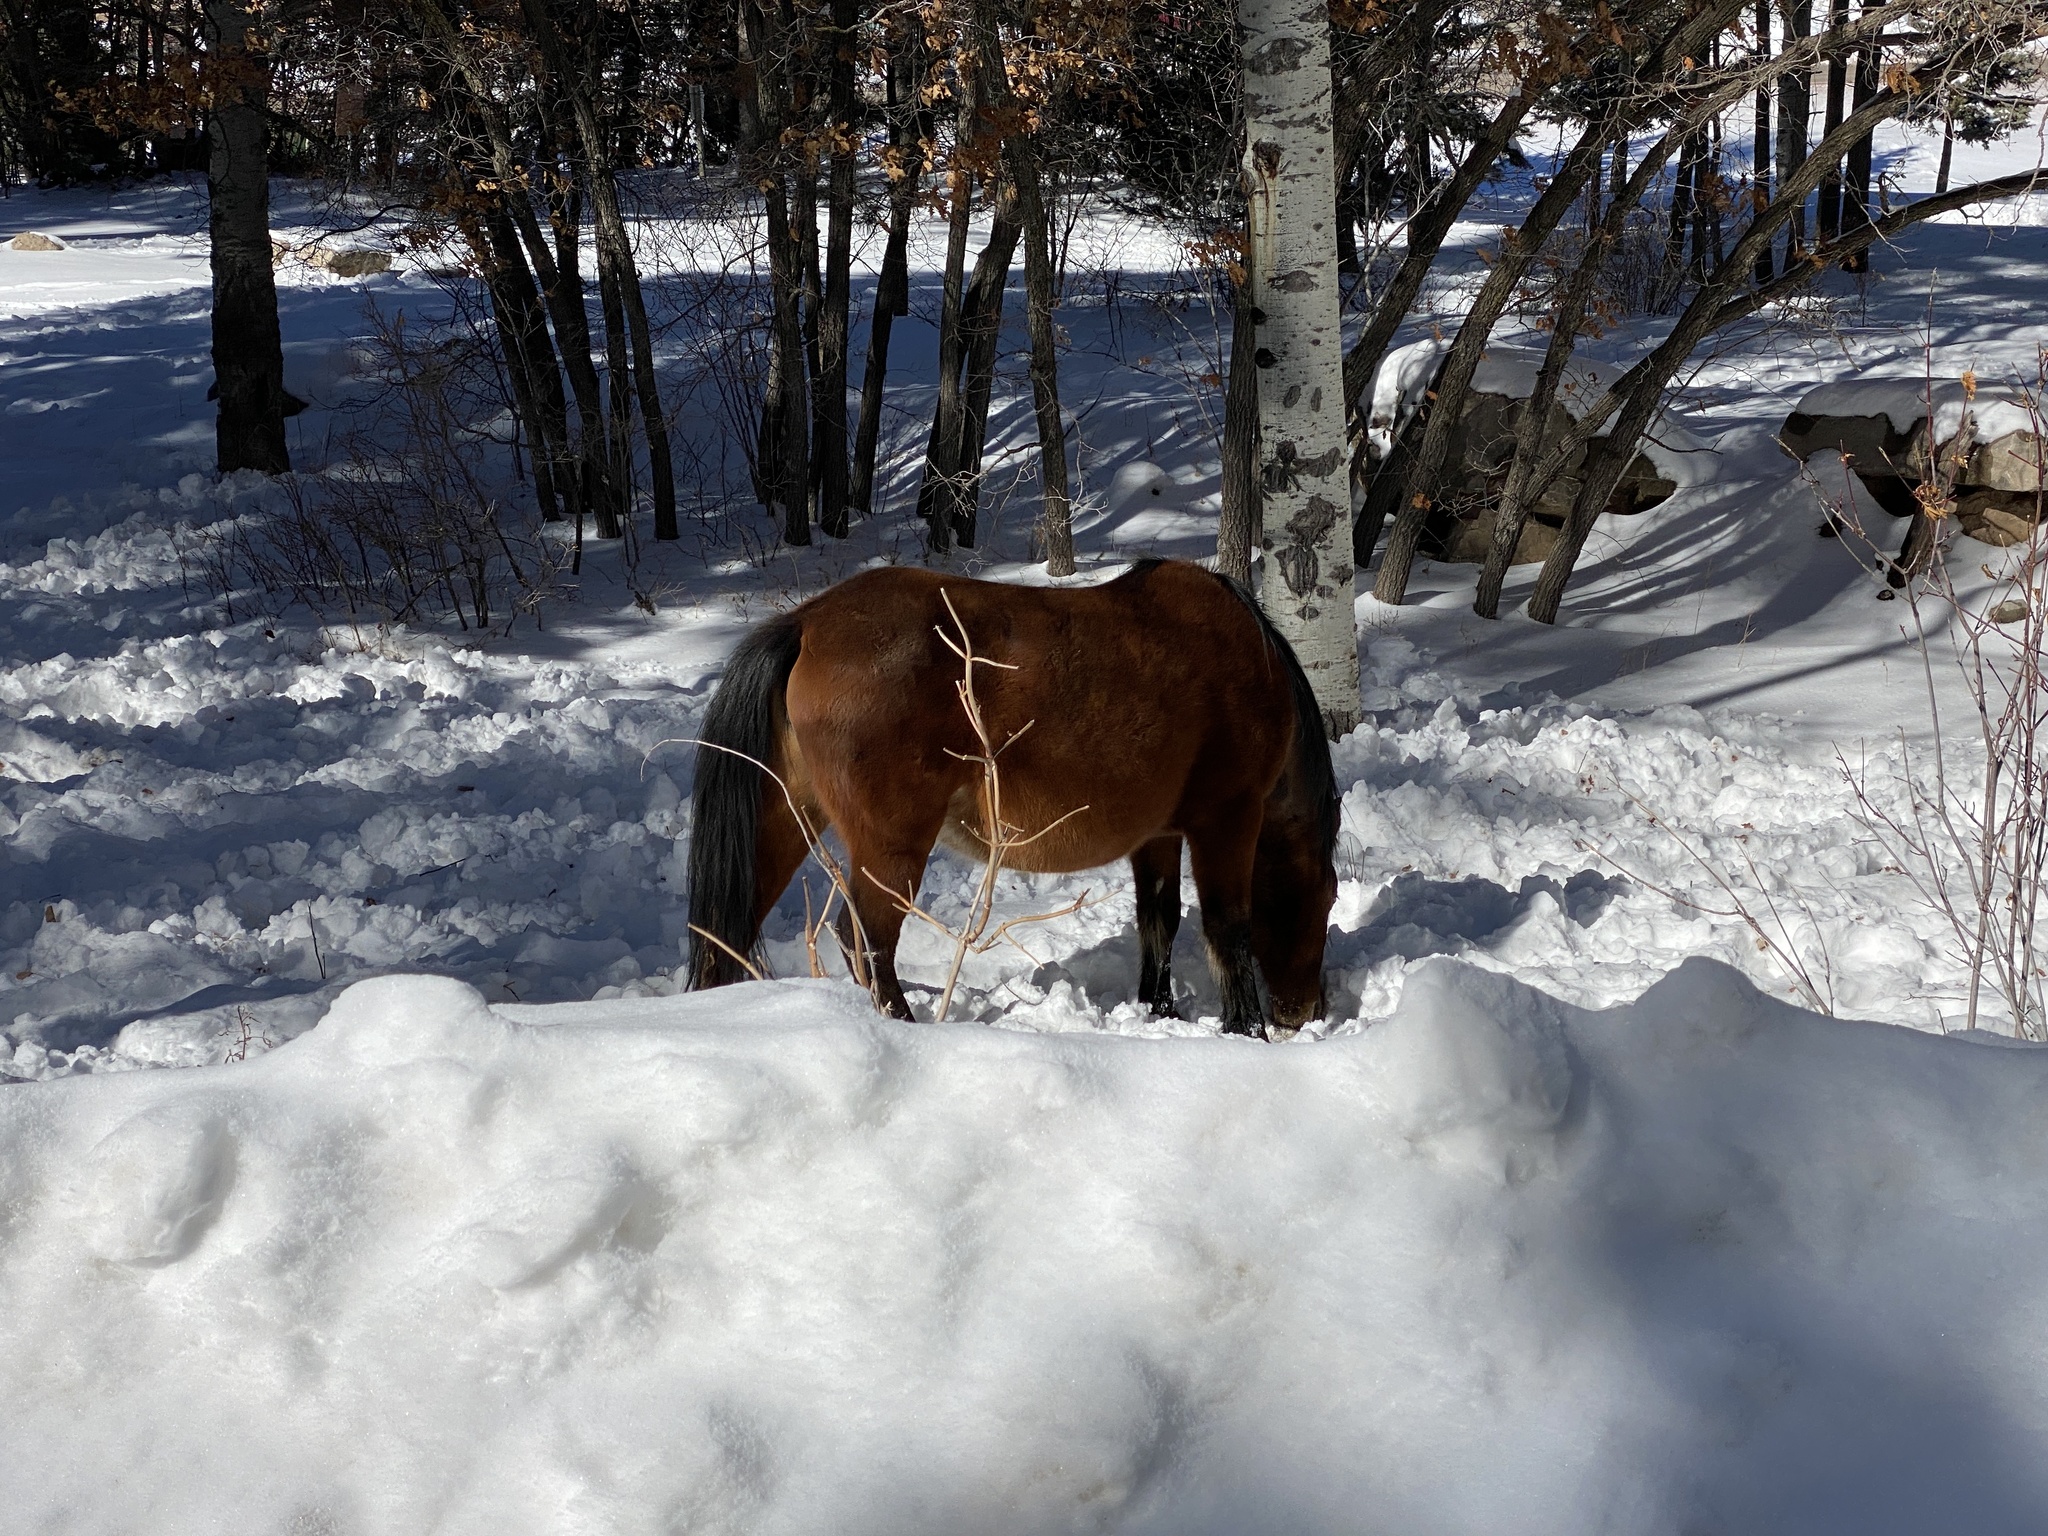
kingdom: Animalia
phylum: Chordata
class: Mammalia
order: Perissodactyla
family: Equidae
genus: Equus
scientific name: Equus caballus
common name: Horse
